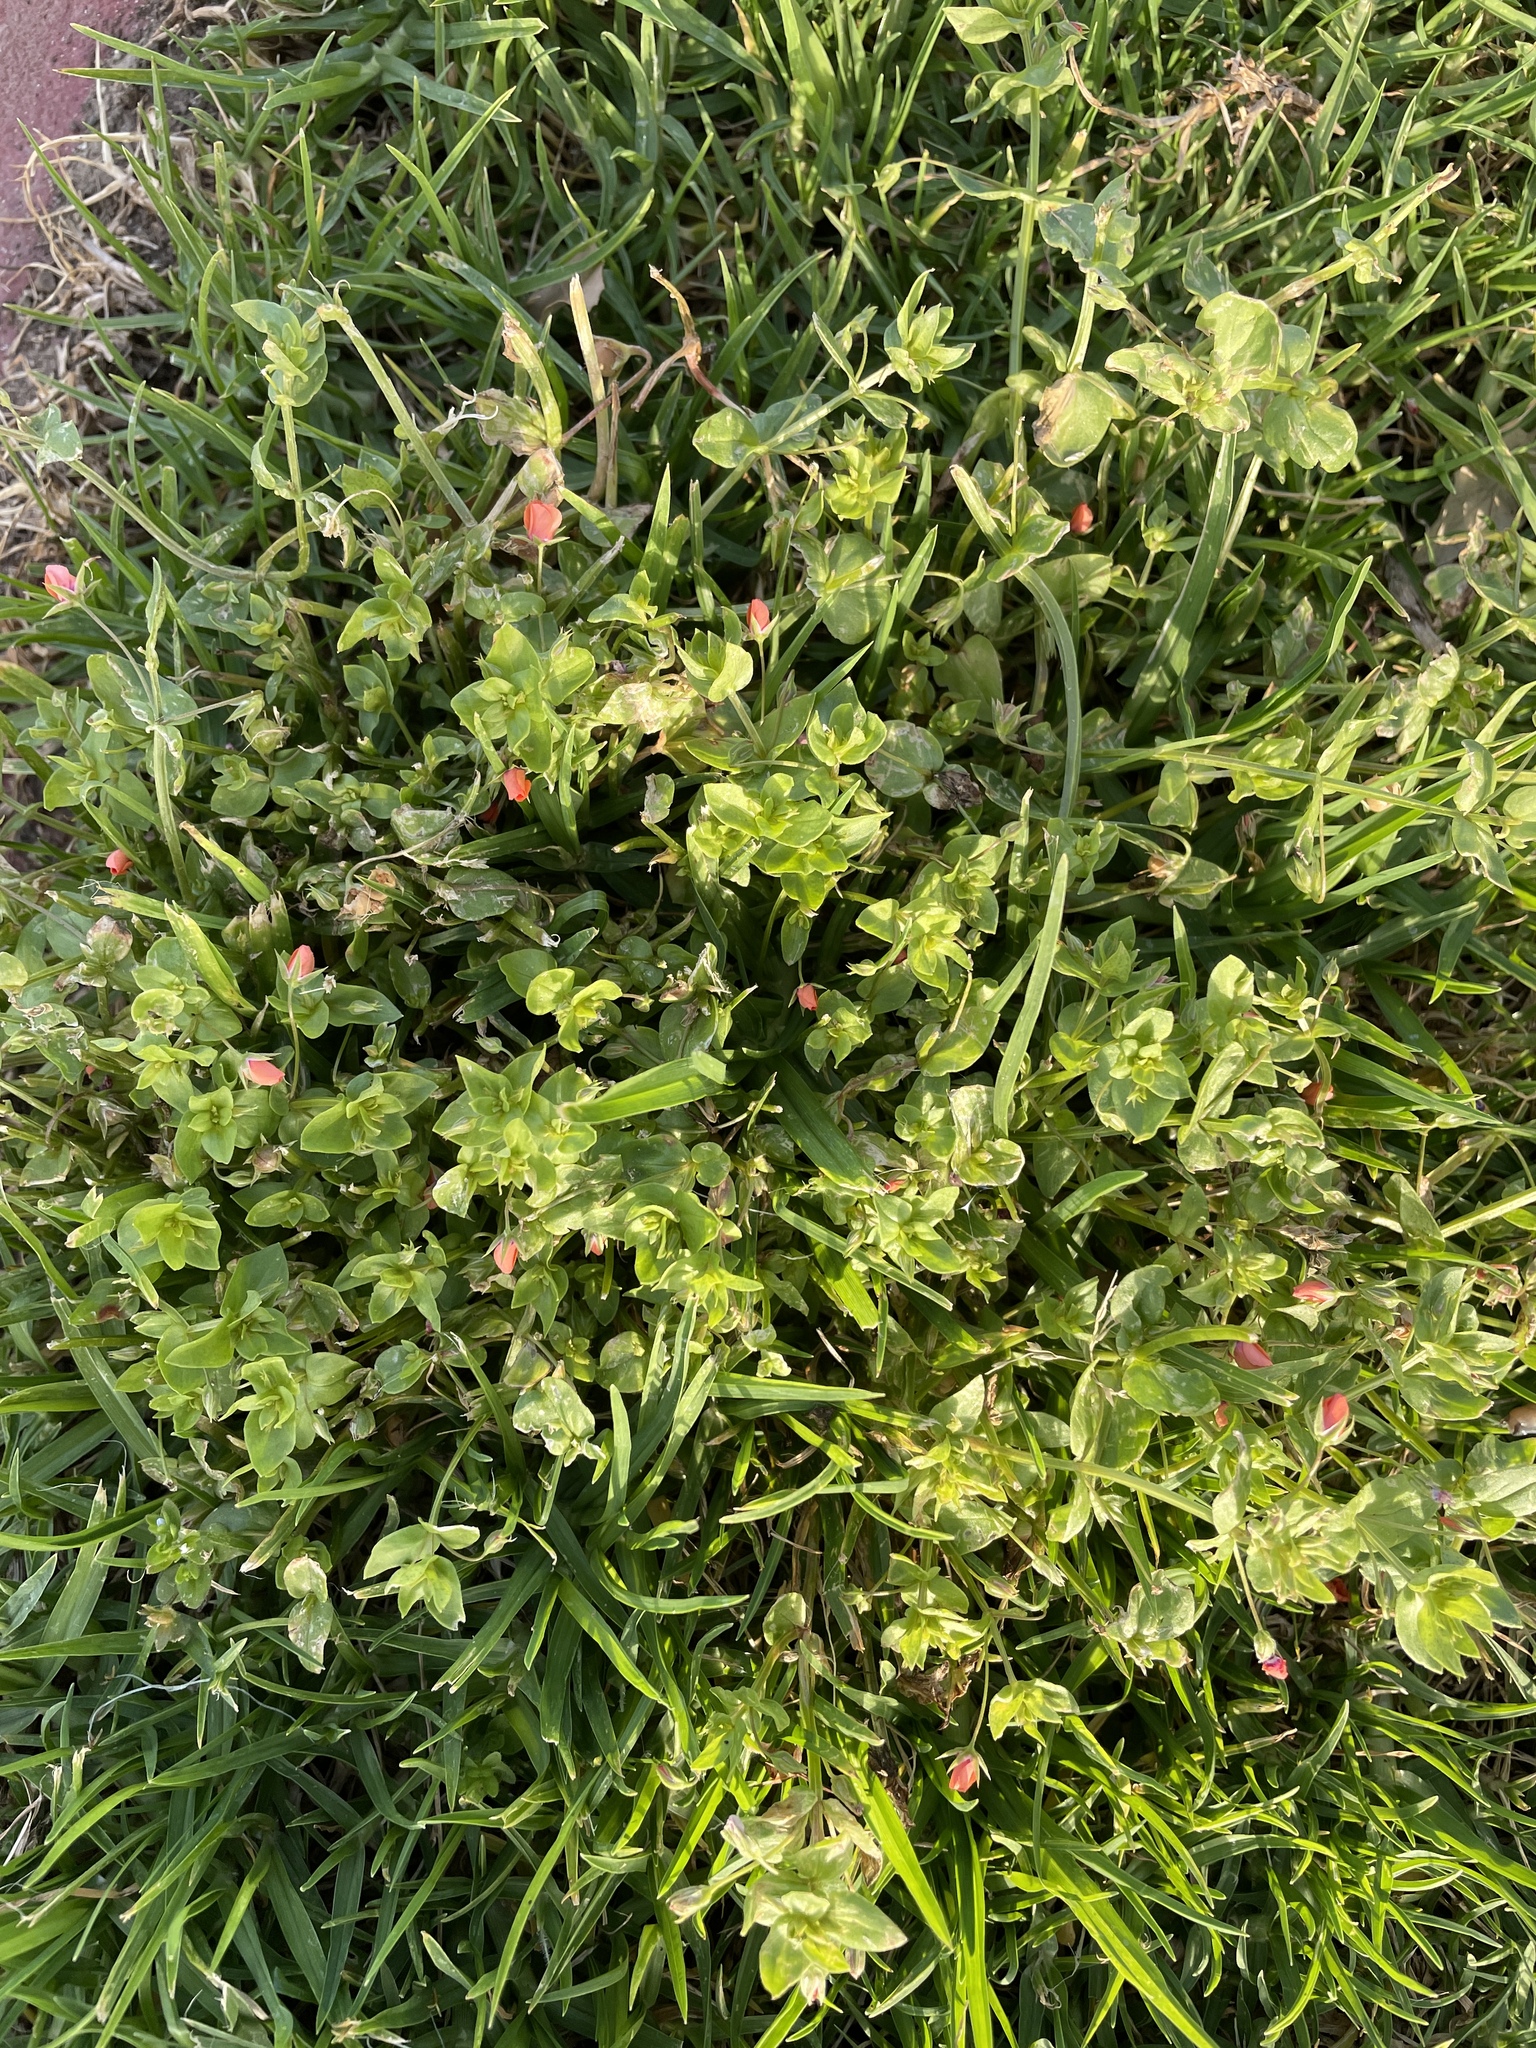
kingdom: Plantae
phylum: Tracheophyta
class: Magnoliopsida
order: Ericales
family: Primulaceae
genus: Lysimachia
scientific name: Lysimachia arvensis
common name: Scarlet pimpernel
